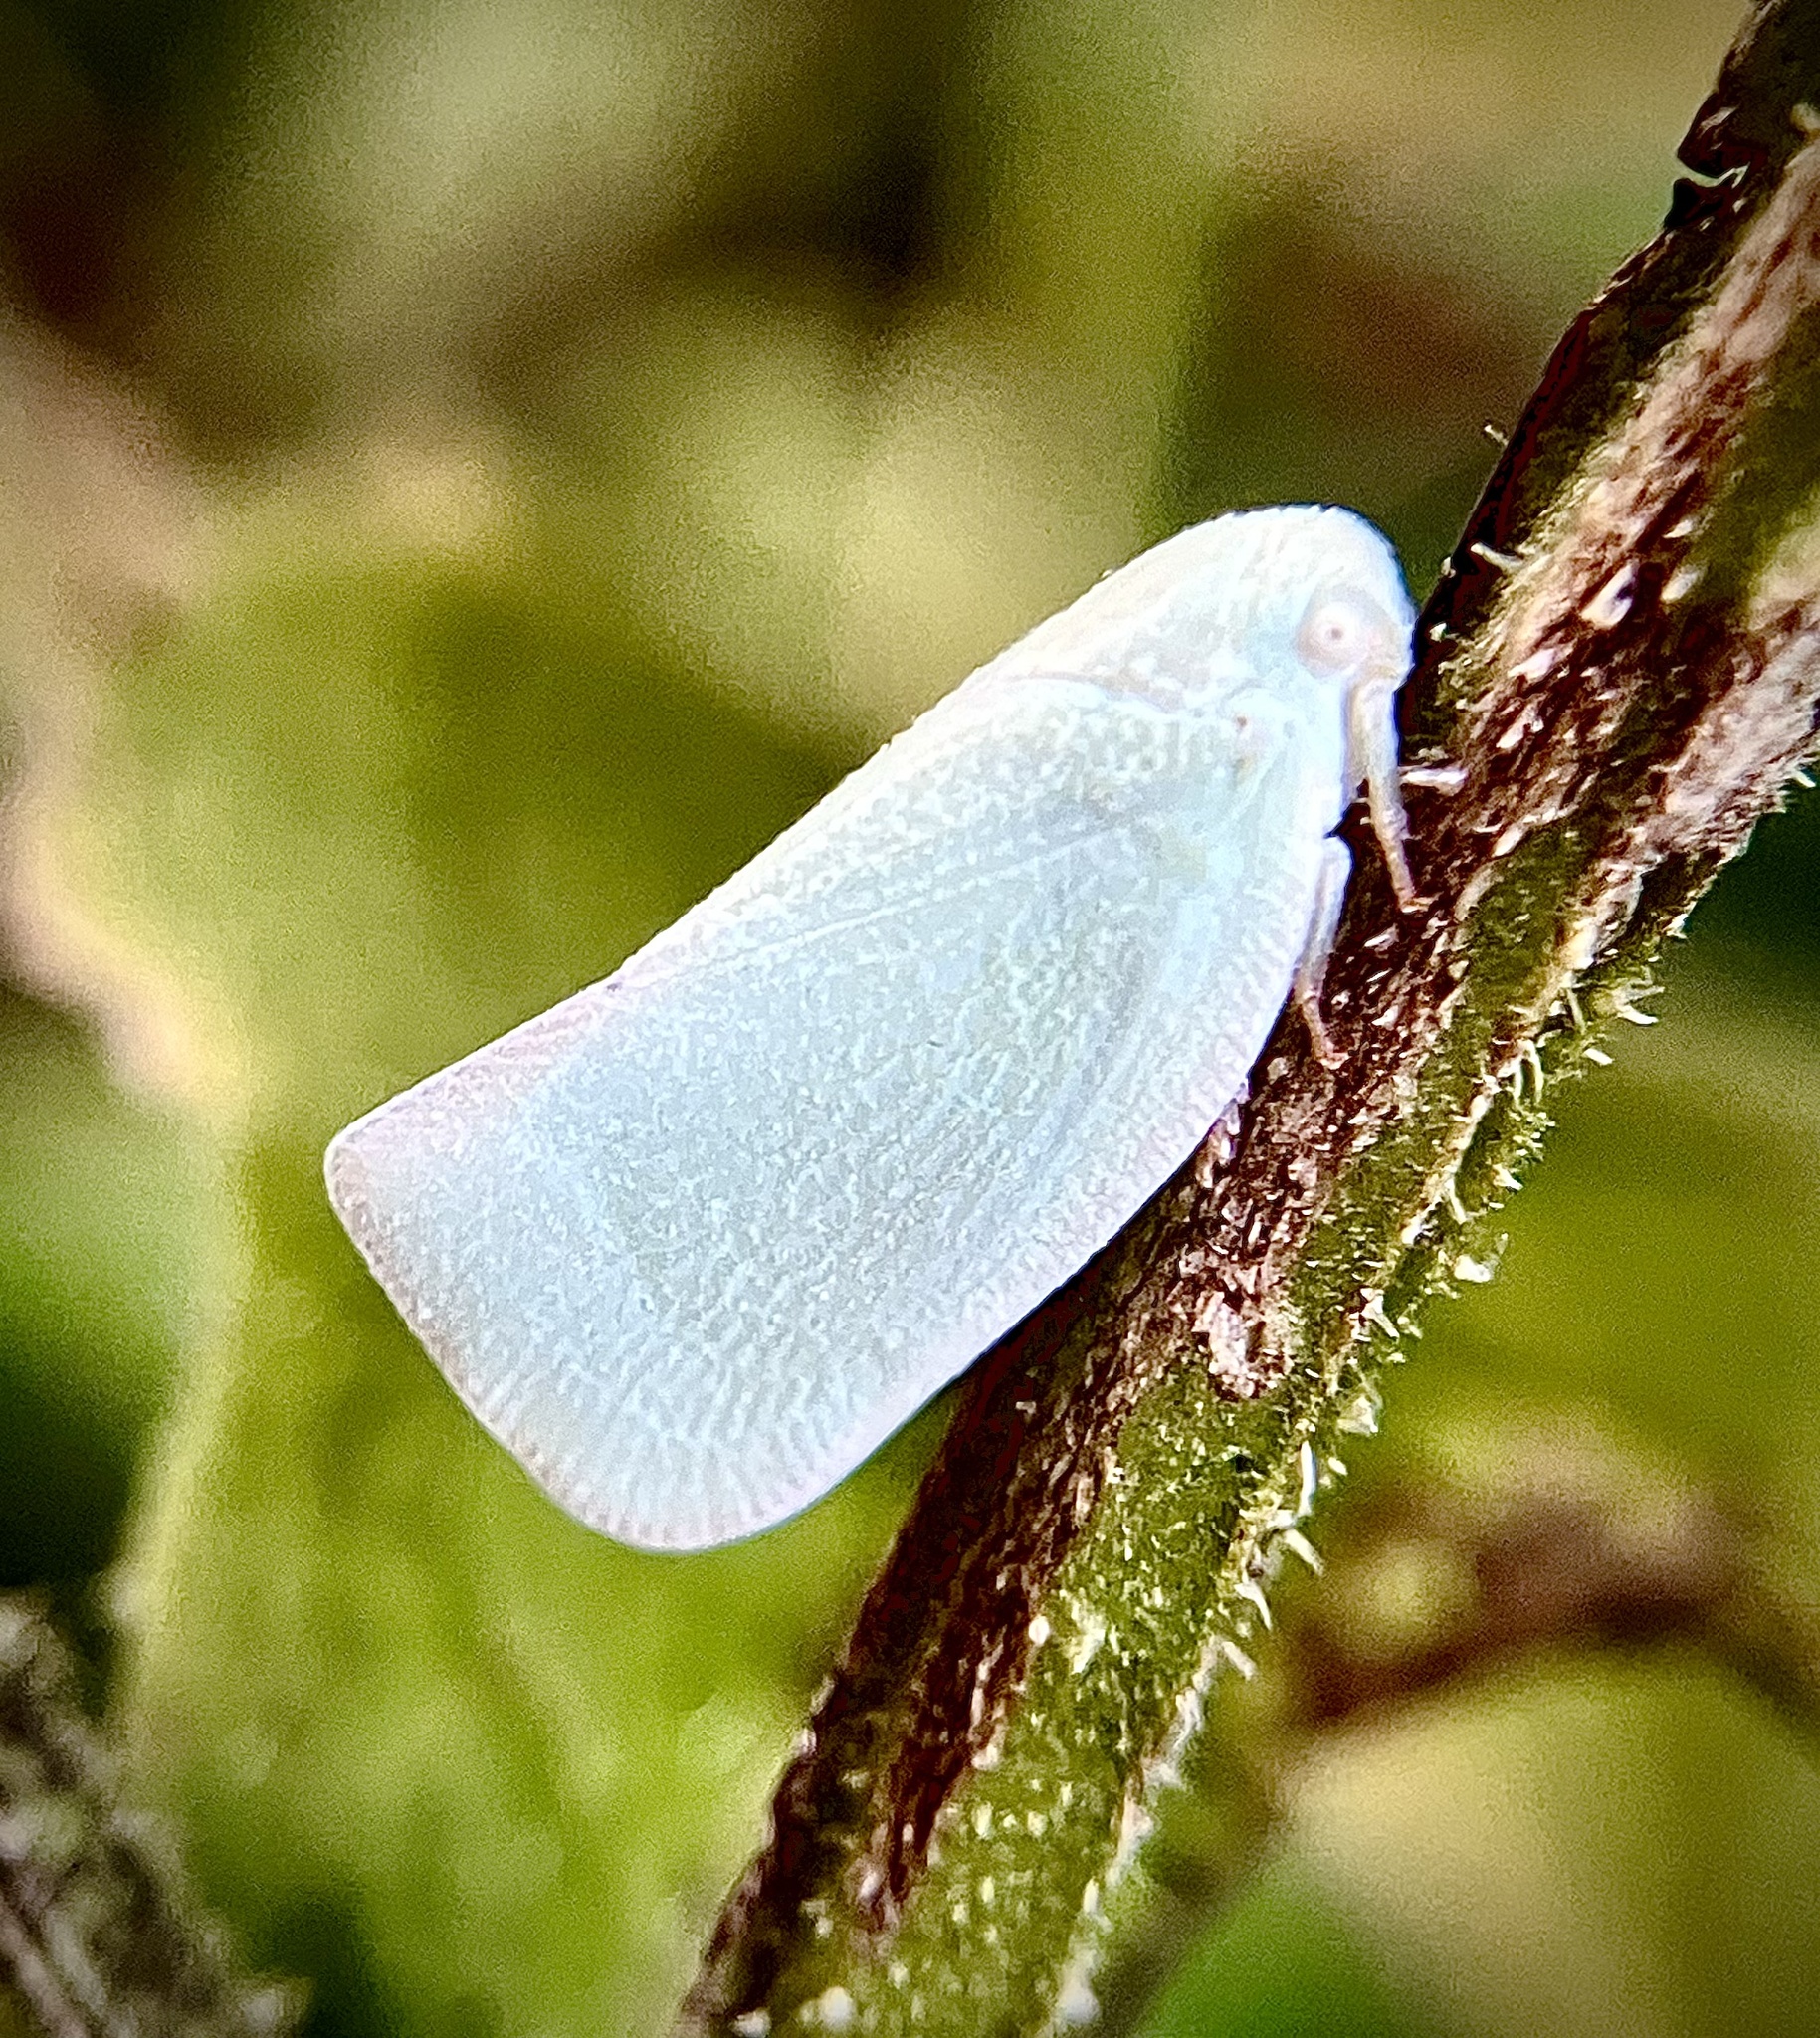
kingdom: Animalia
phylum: Arthropoda
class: Insecta
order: Hemiptera
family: Flatidae
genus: Flatormenis
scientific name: Flatormenis proxima
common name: Northern flatid planthopper
